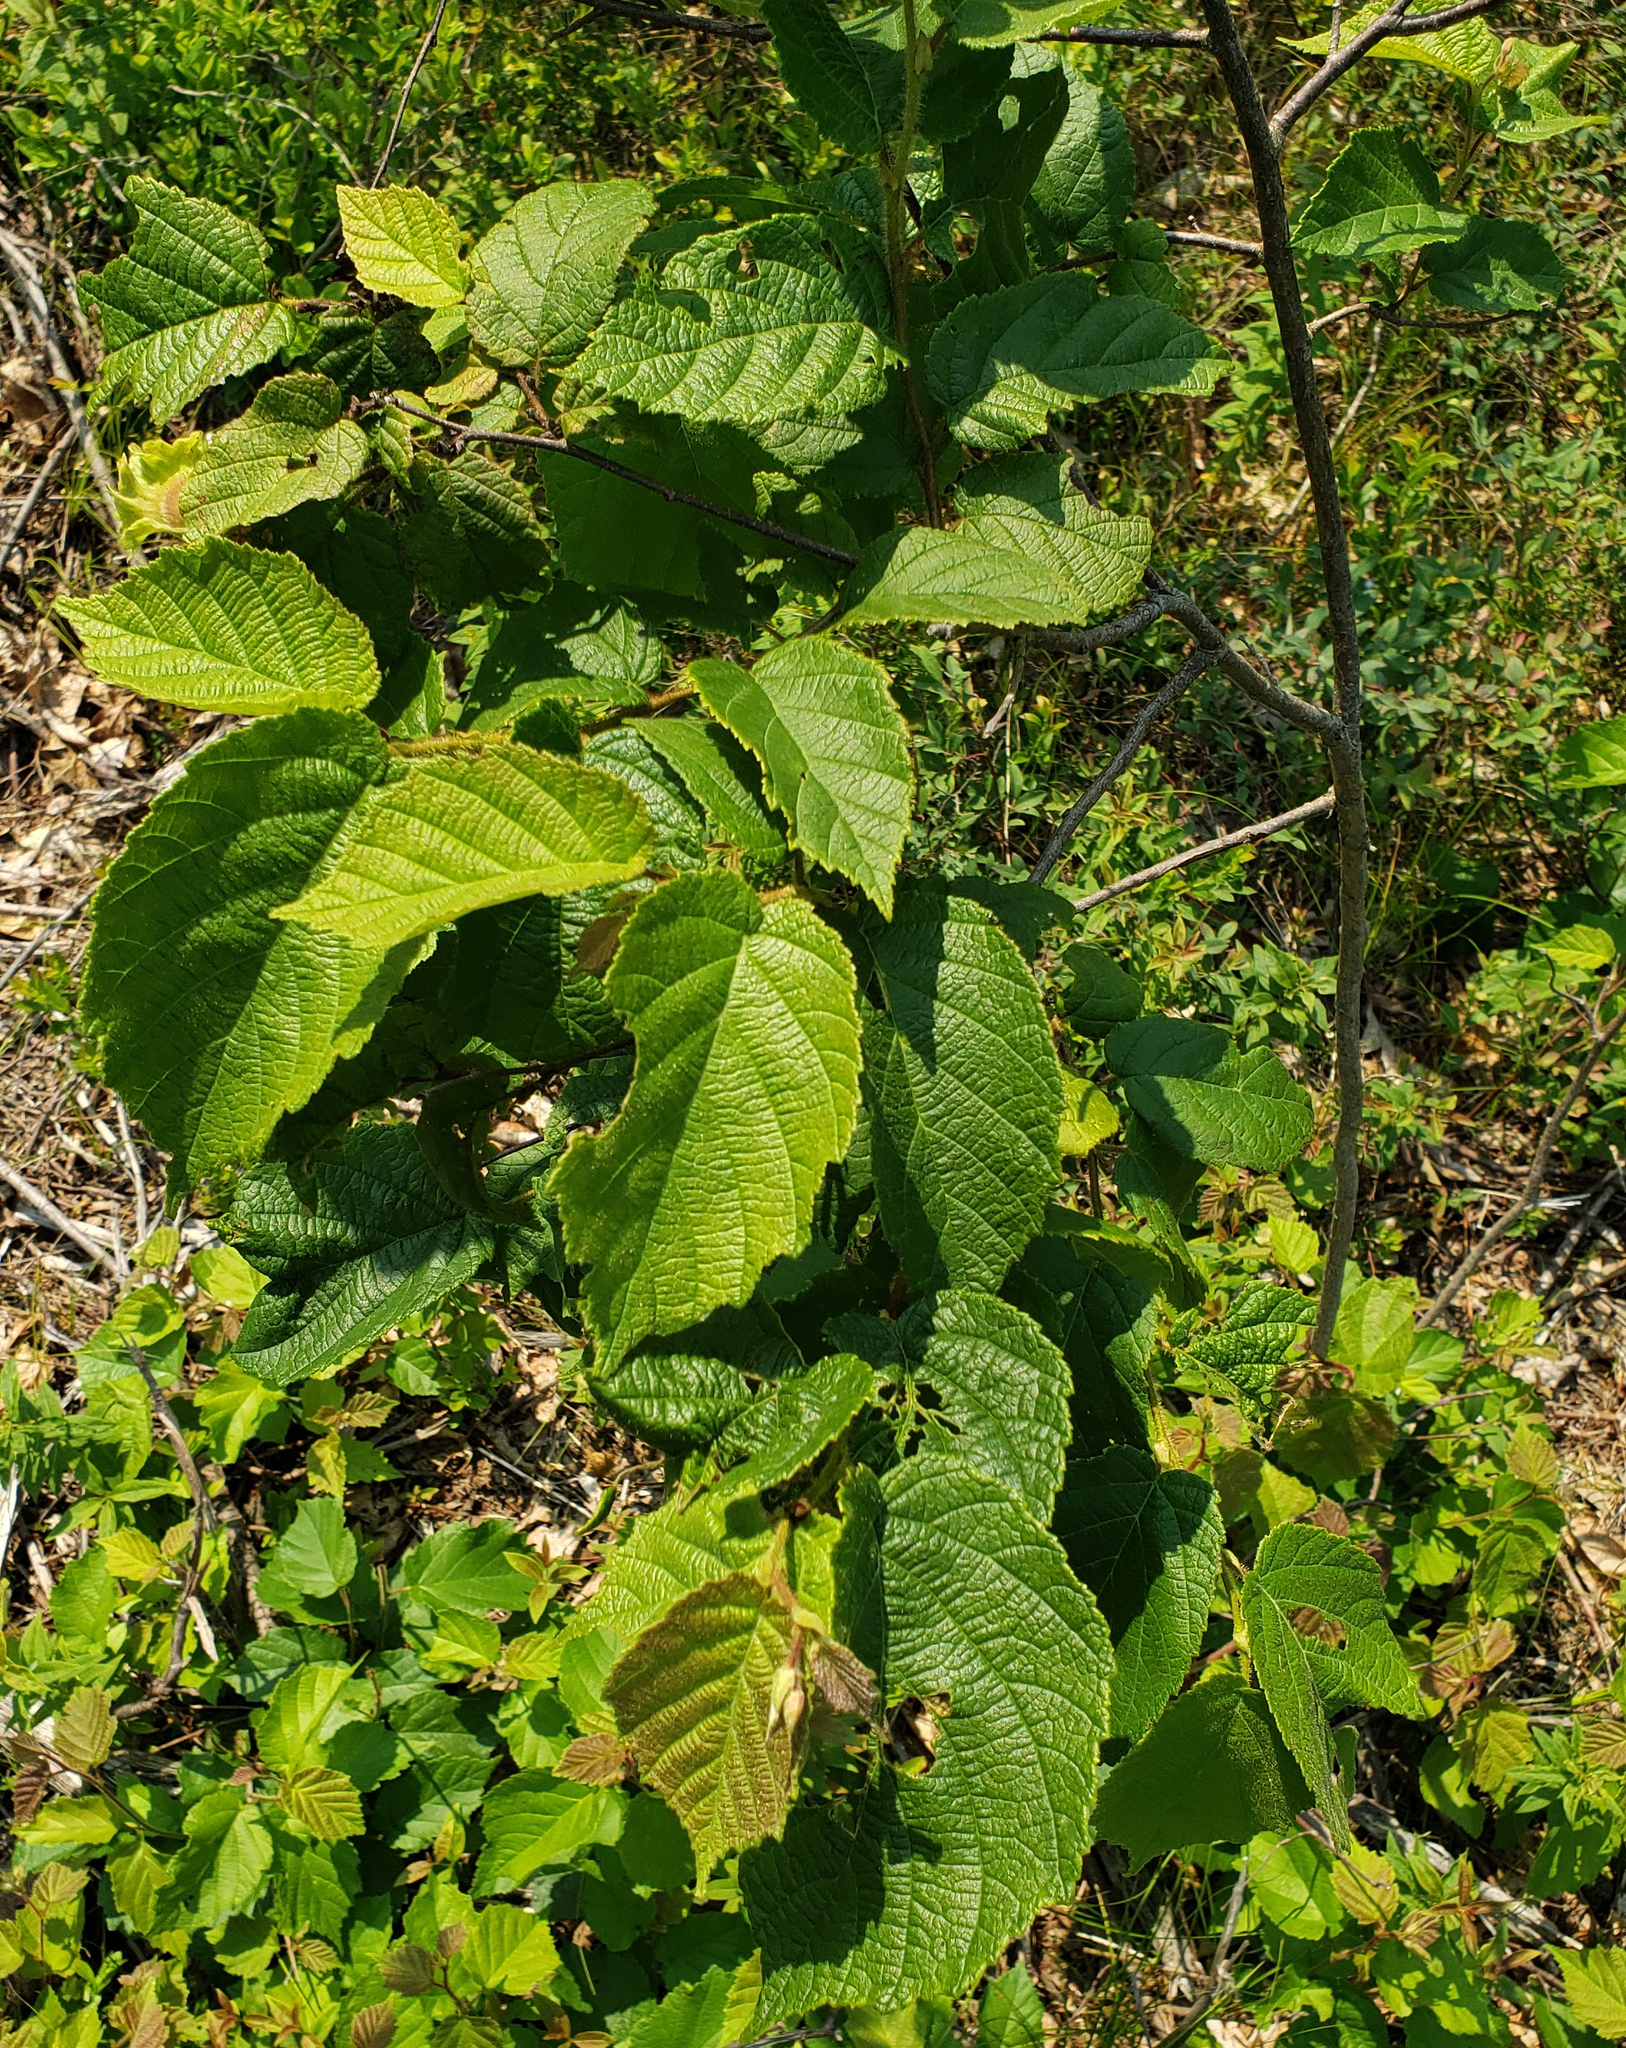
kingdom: Plantae
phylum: Tracheophyta
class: Magnoliopsida
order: Fagales
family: Betulaceae
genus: Corylus
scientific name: Corylus americana
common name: American hazel
